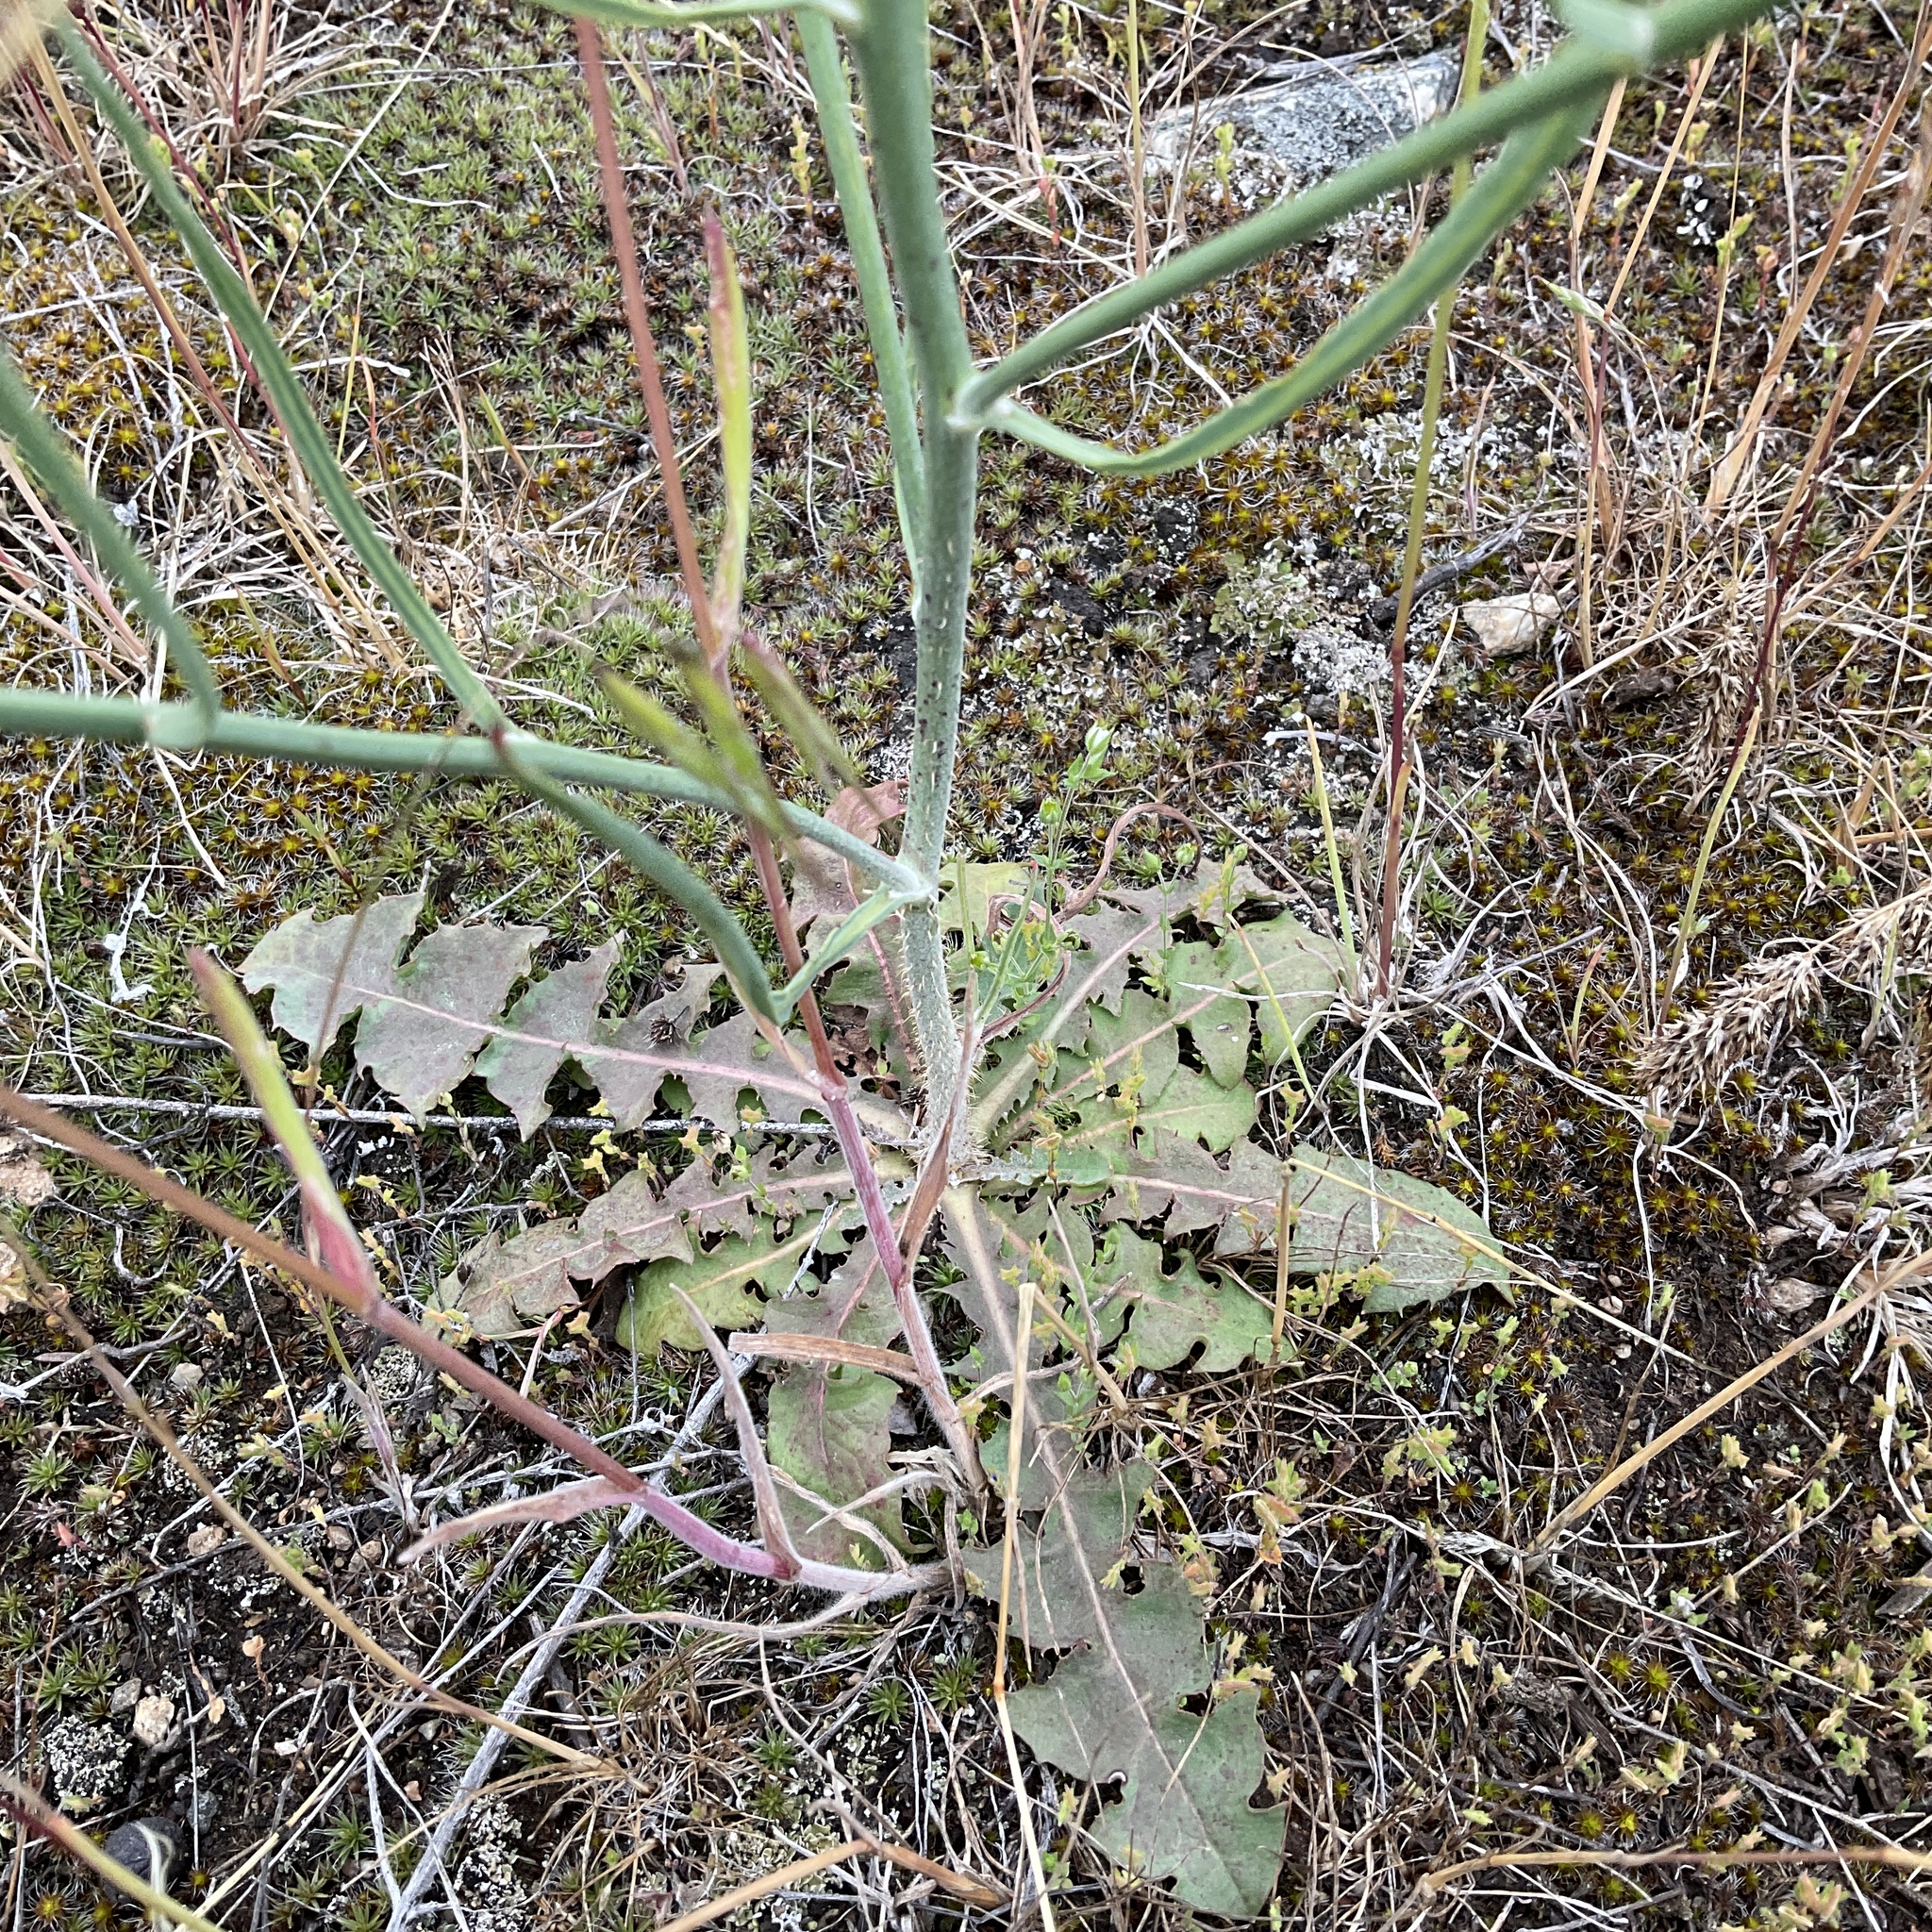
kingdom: Plantae
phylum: Tracheophyta
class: Magnoliopsida
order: Asterales
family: Asteraceae
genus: Chondrilla
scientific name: Chondrilla juncea
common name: Skeleton weed
